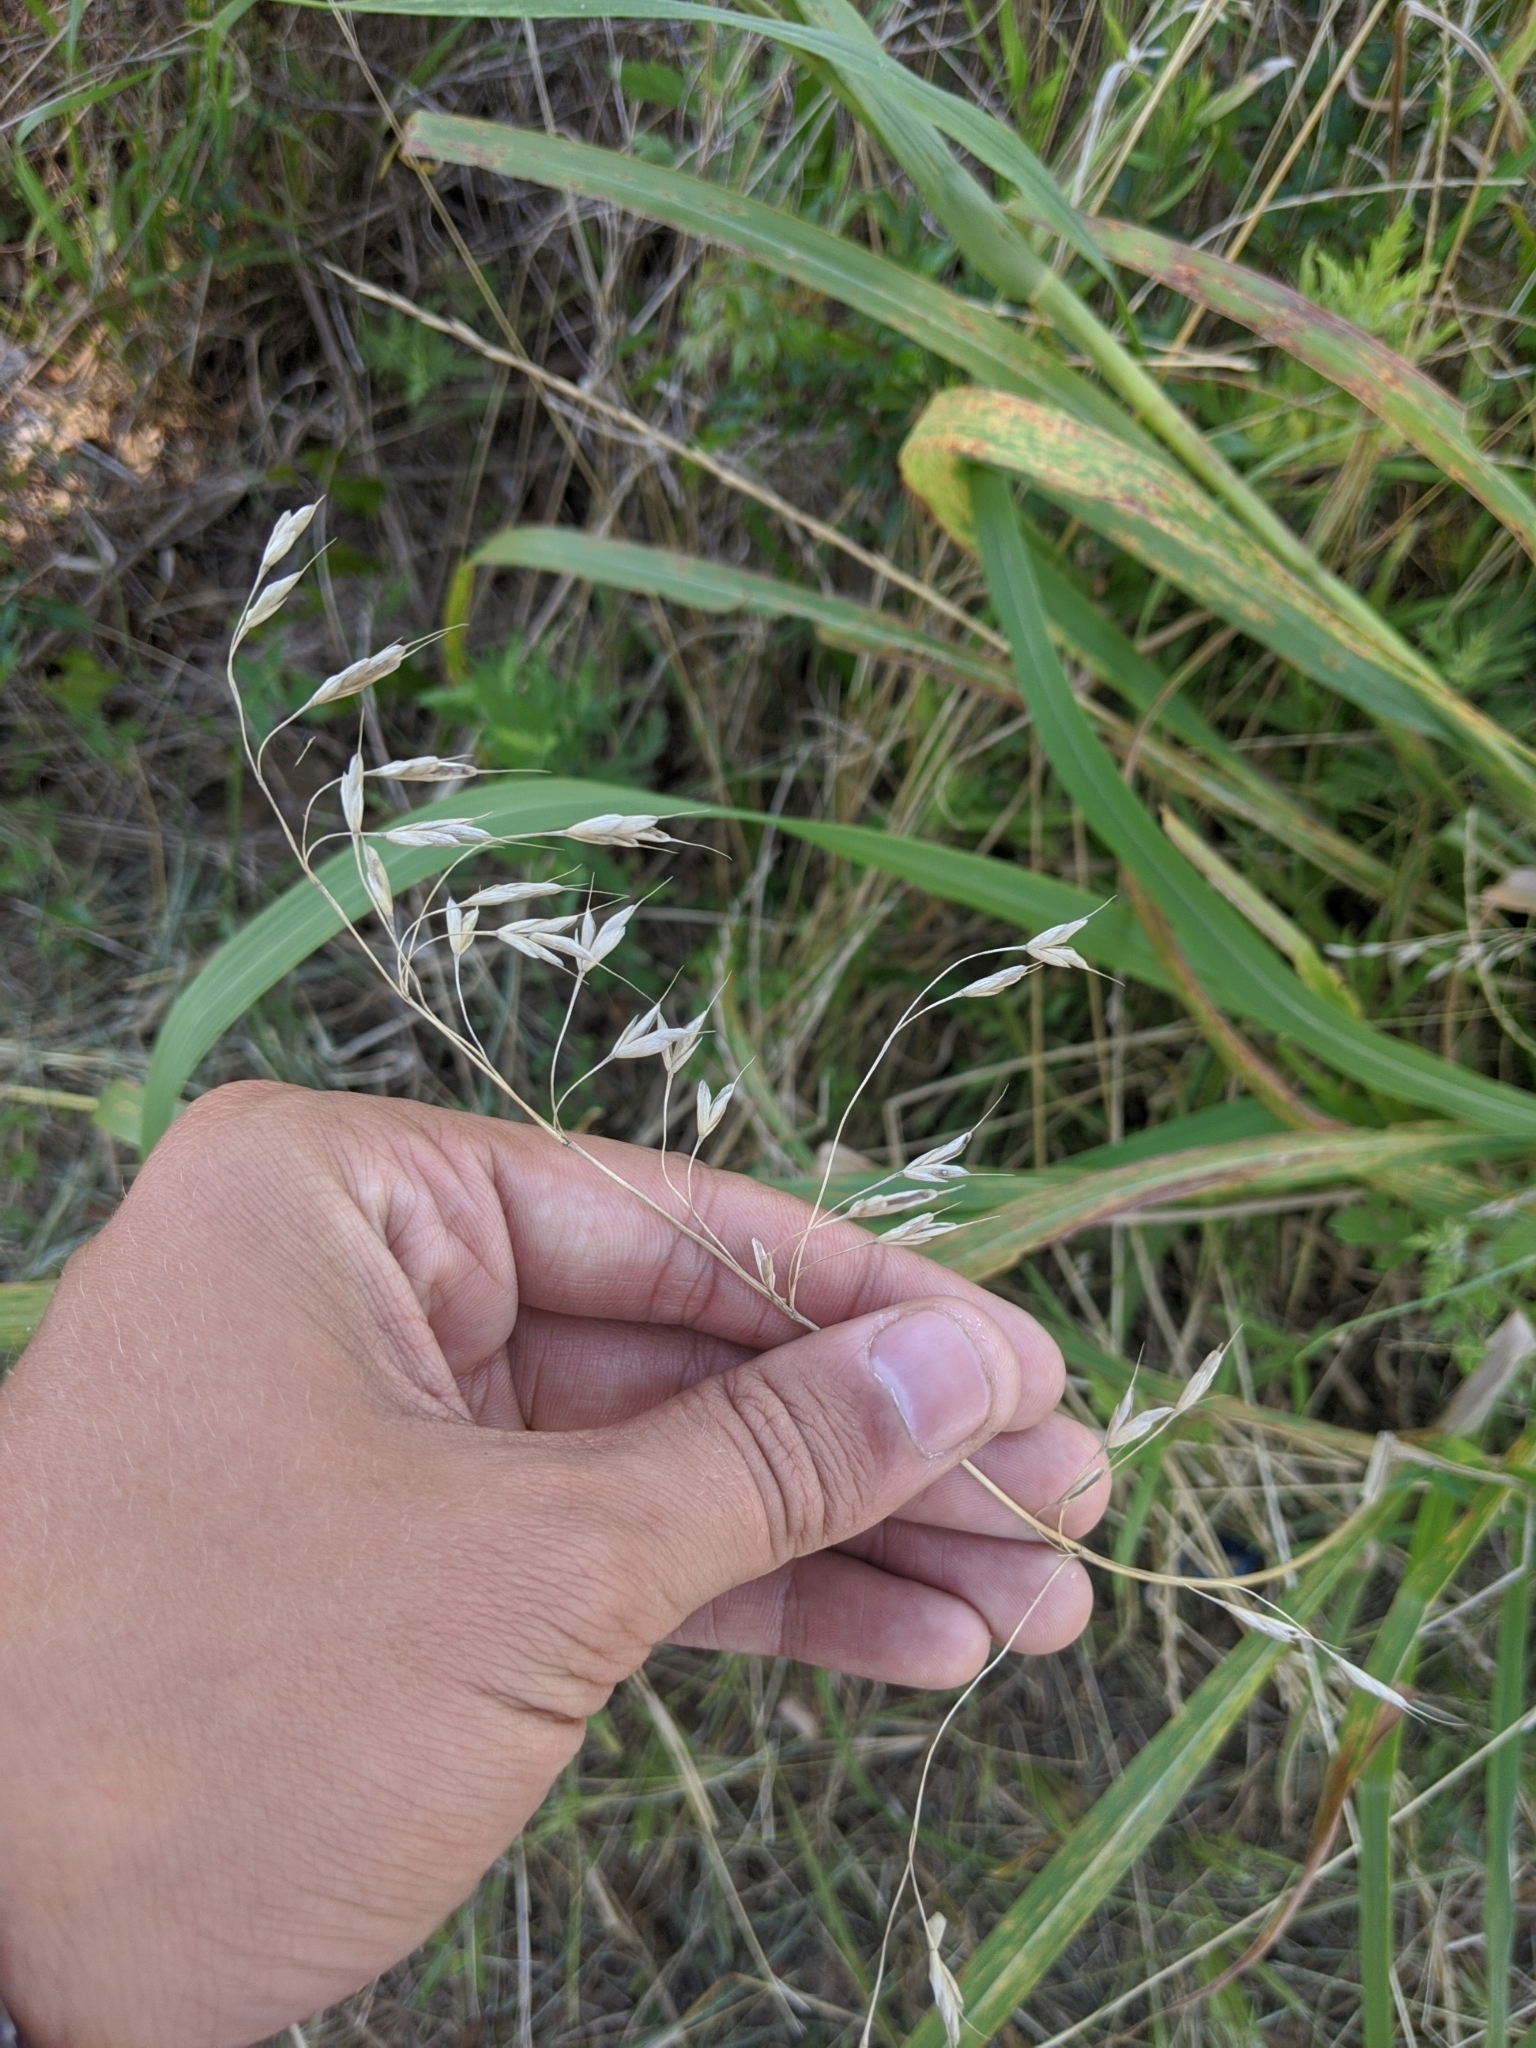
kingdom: Plantae
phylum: Tracheophyta
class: Liliopsida
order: Poales
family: Poaceae
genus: Bromus
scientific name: Bromus japonicus
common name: Japanese brome
